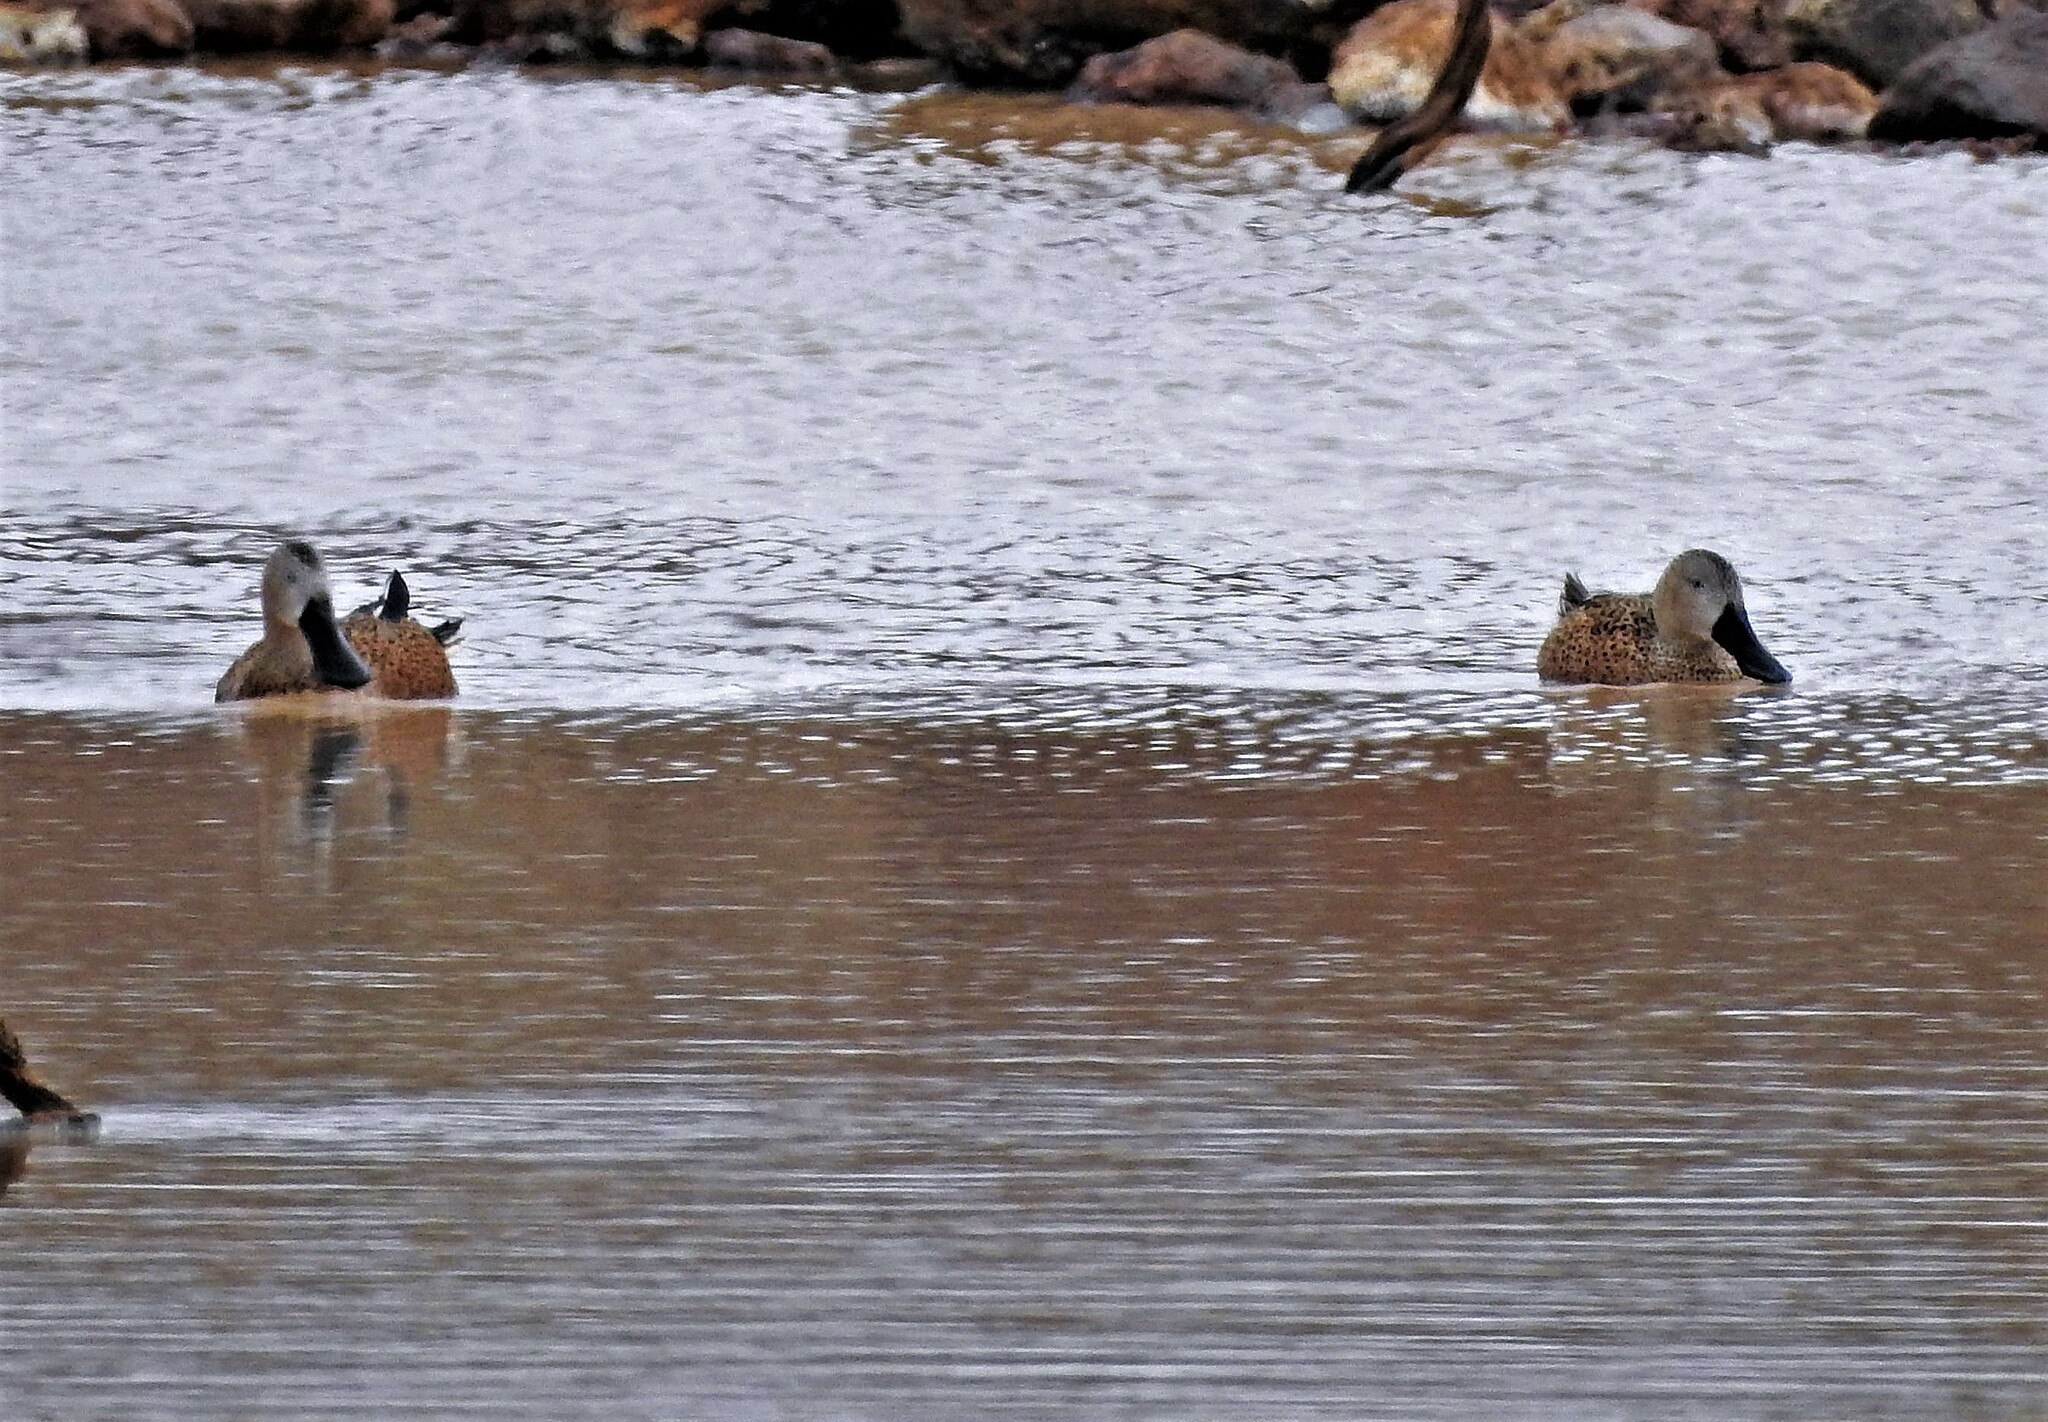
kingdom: Animalia
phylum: Chordata
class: Aves
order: Anseriformes
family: Anatidae
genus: Spatula
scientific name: Spatula platalea
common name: Red shoveler
